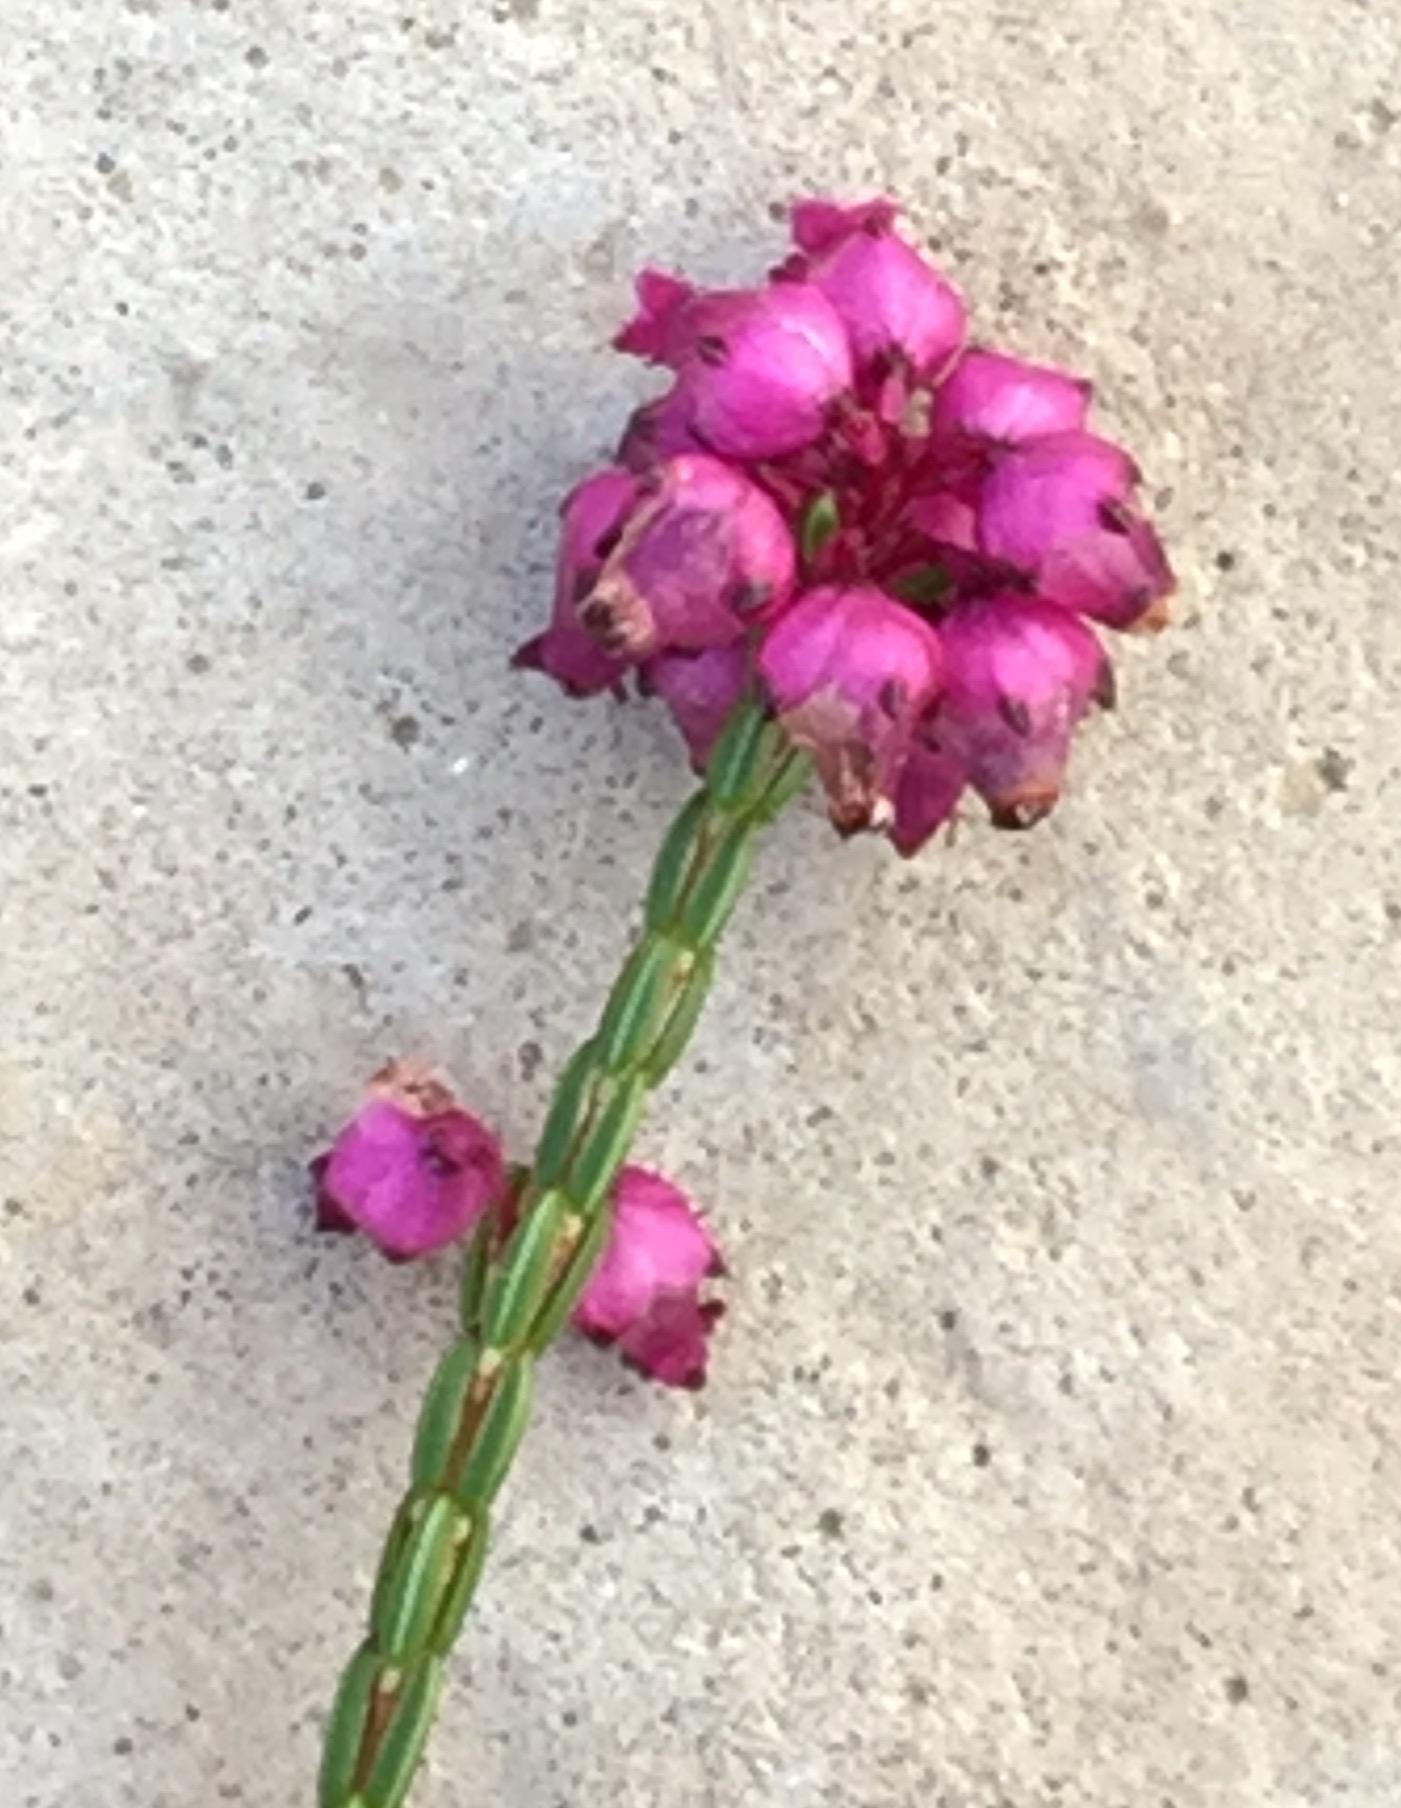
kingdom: Plantae
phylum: Tracheophyta
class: Magnoliopsida
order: Ericales
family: Ericaceae
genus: Erica
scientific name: Erica rhopalantha
